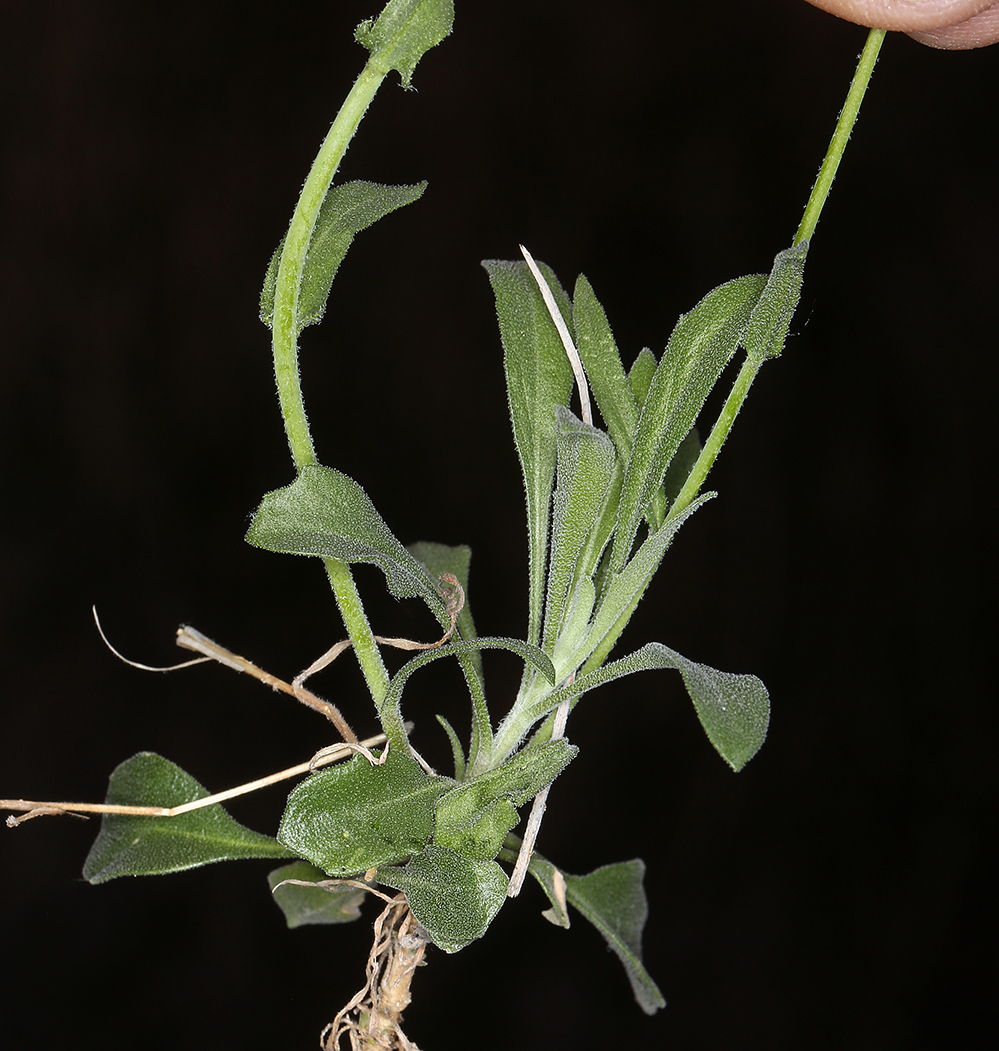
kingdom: Plantae
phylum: Tracheophyta
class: Magnoliopsida
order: Brassicales
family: Brassicaceae
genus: Boechera
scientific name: Boechera perennans
